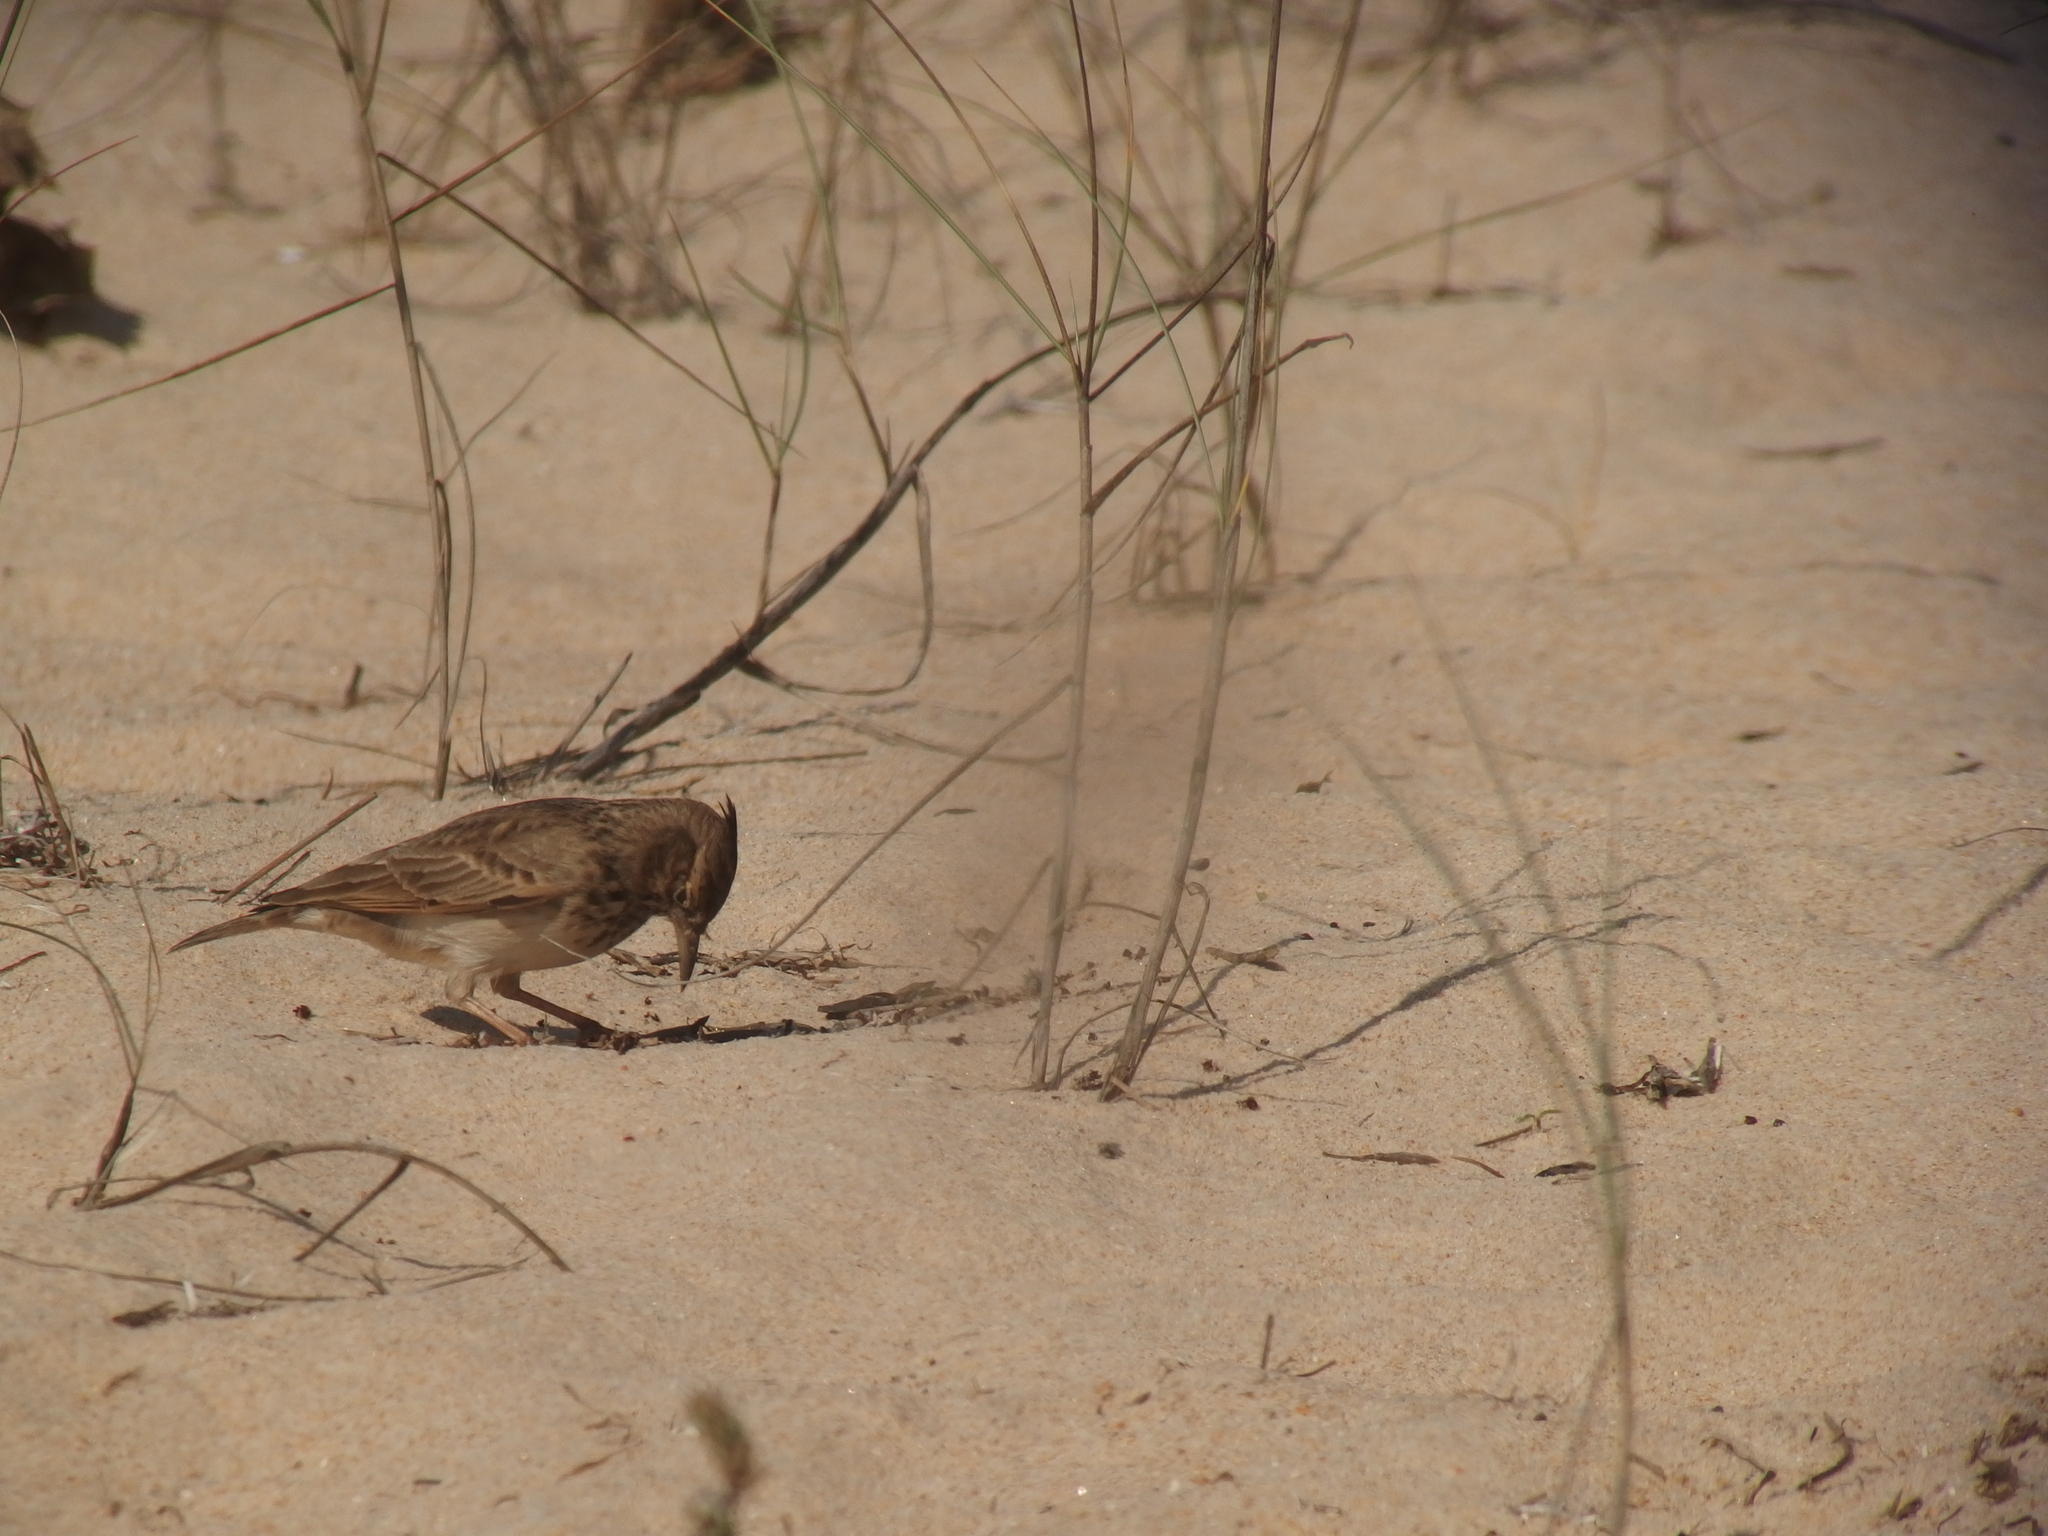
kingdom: Animalia
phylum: Chordata
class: Aves
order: Passeriformes
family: Alaudidae
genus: Galerida
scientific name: Galerida cristata
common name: Crested lark
